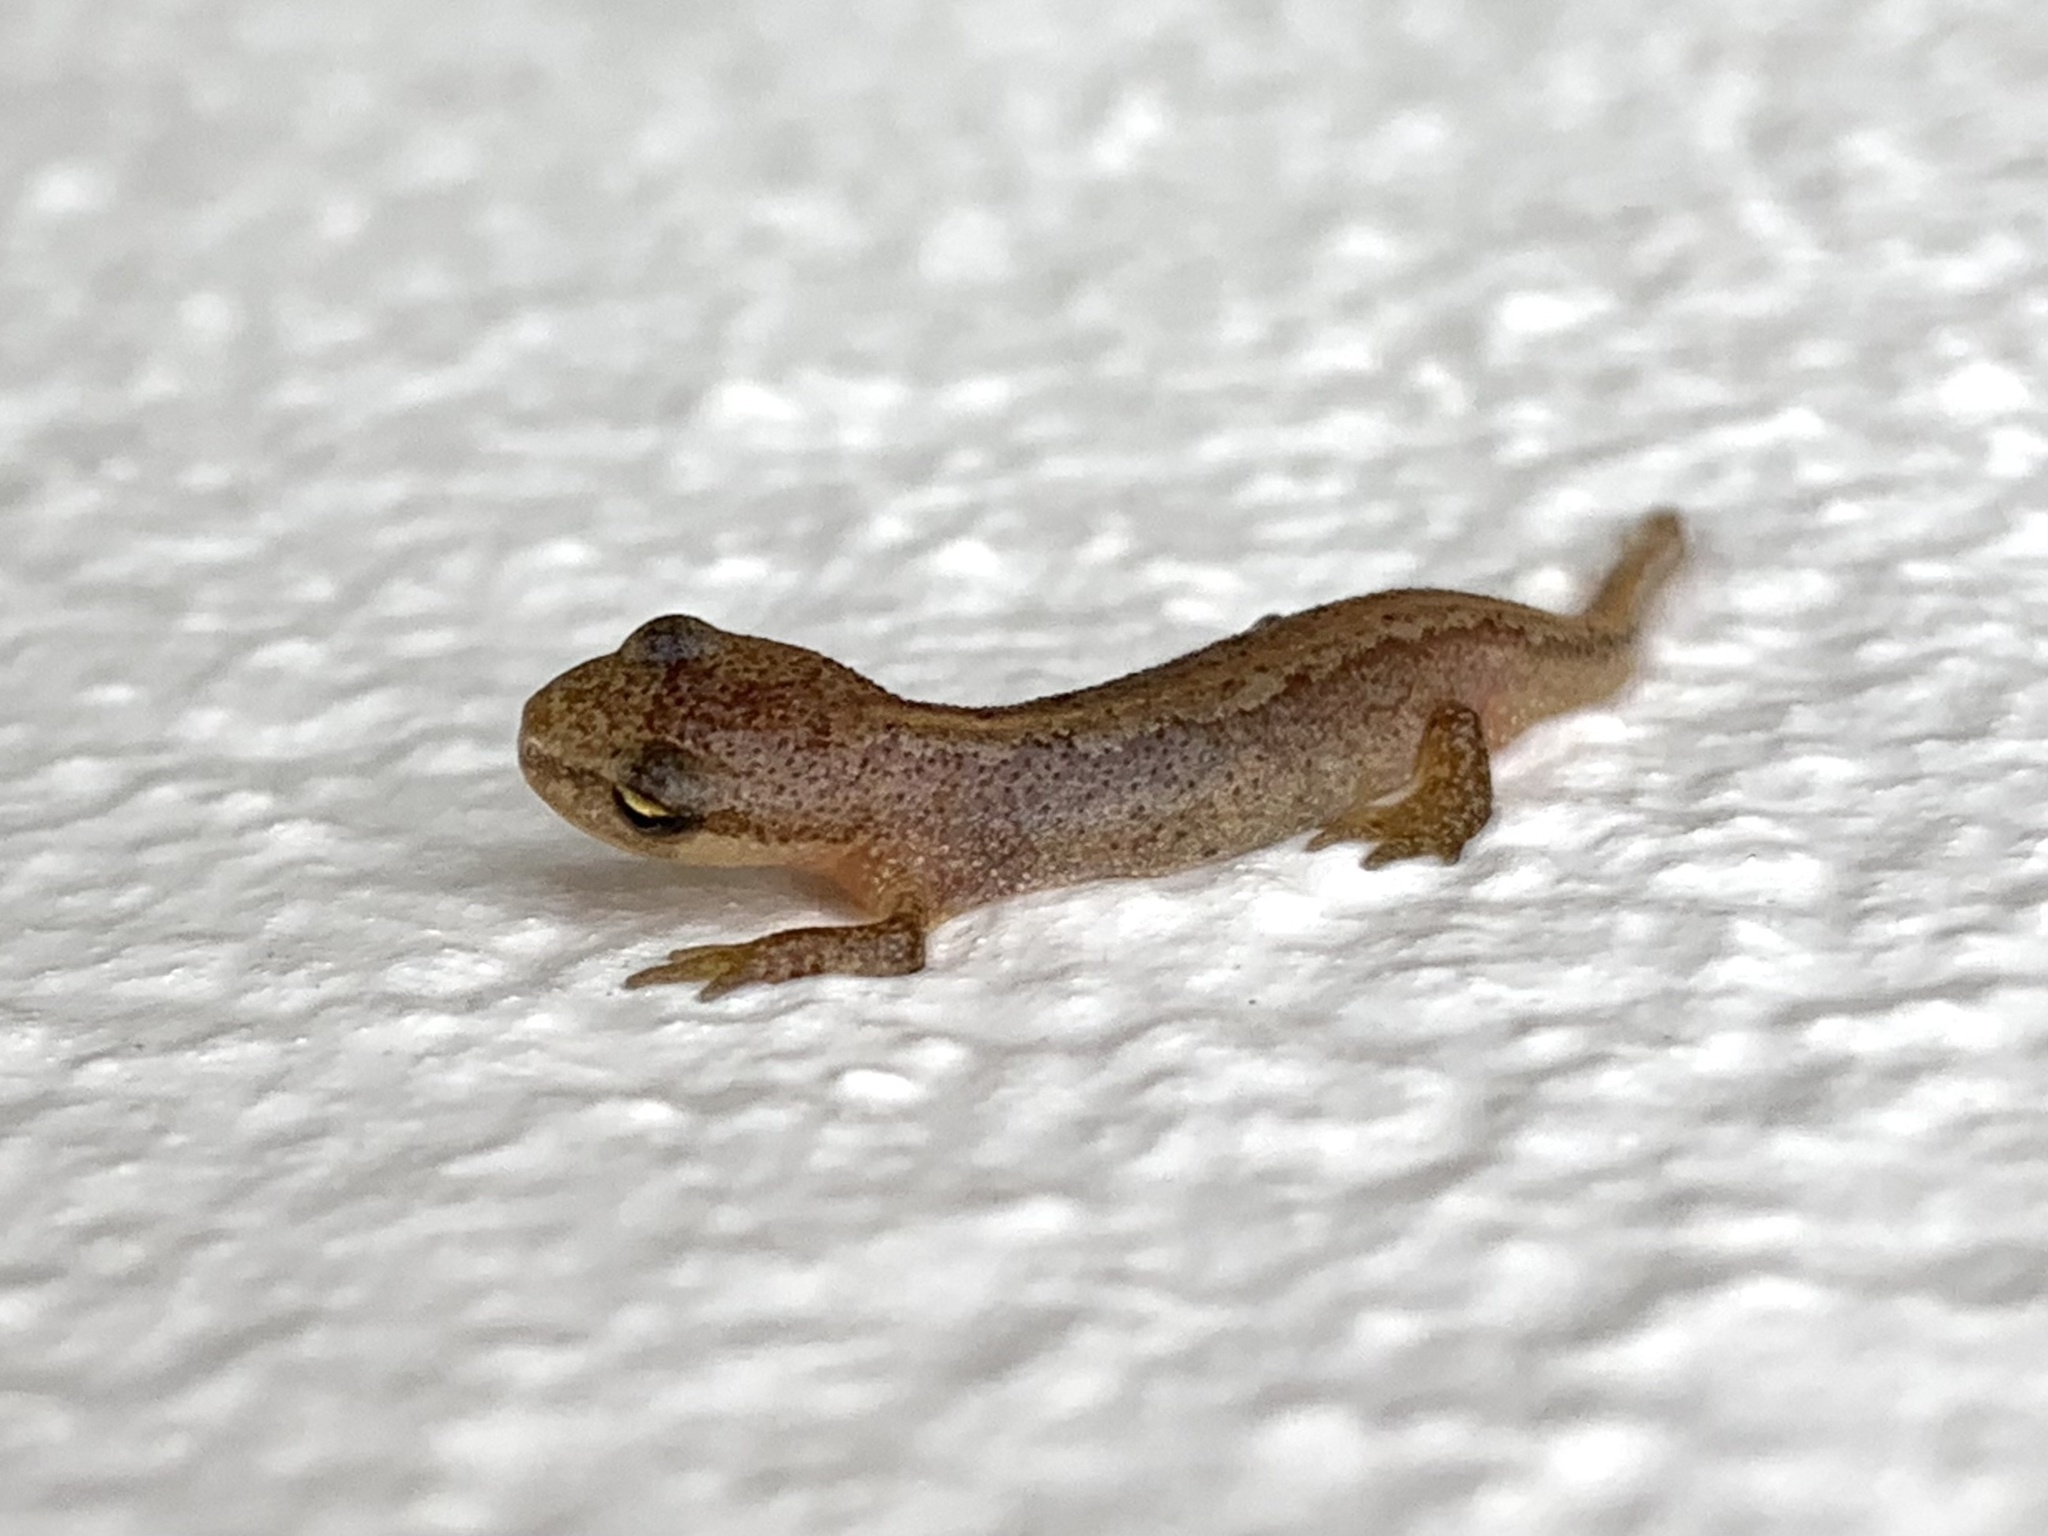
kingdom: Animalia
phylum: Chordata
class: Amphibia
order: Caudata
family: Salamandridae
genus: Lissotriton
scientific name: Lissotriton helveticus
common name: Palmate newt
